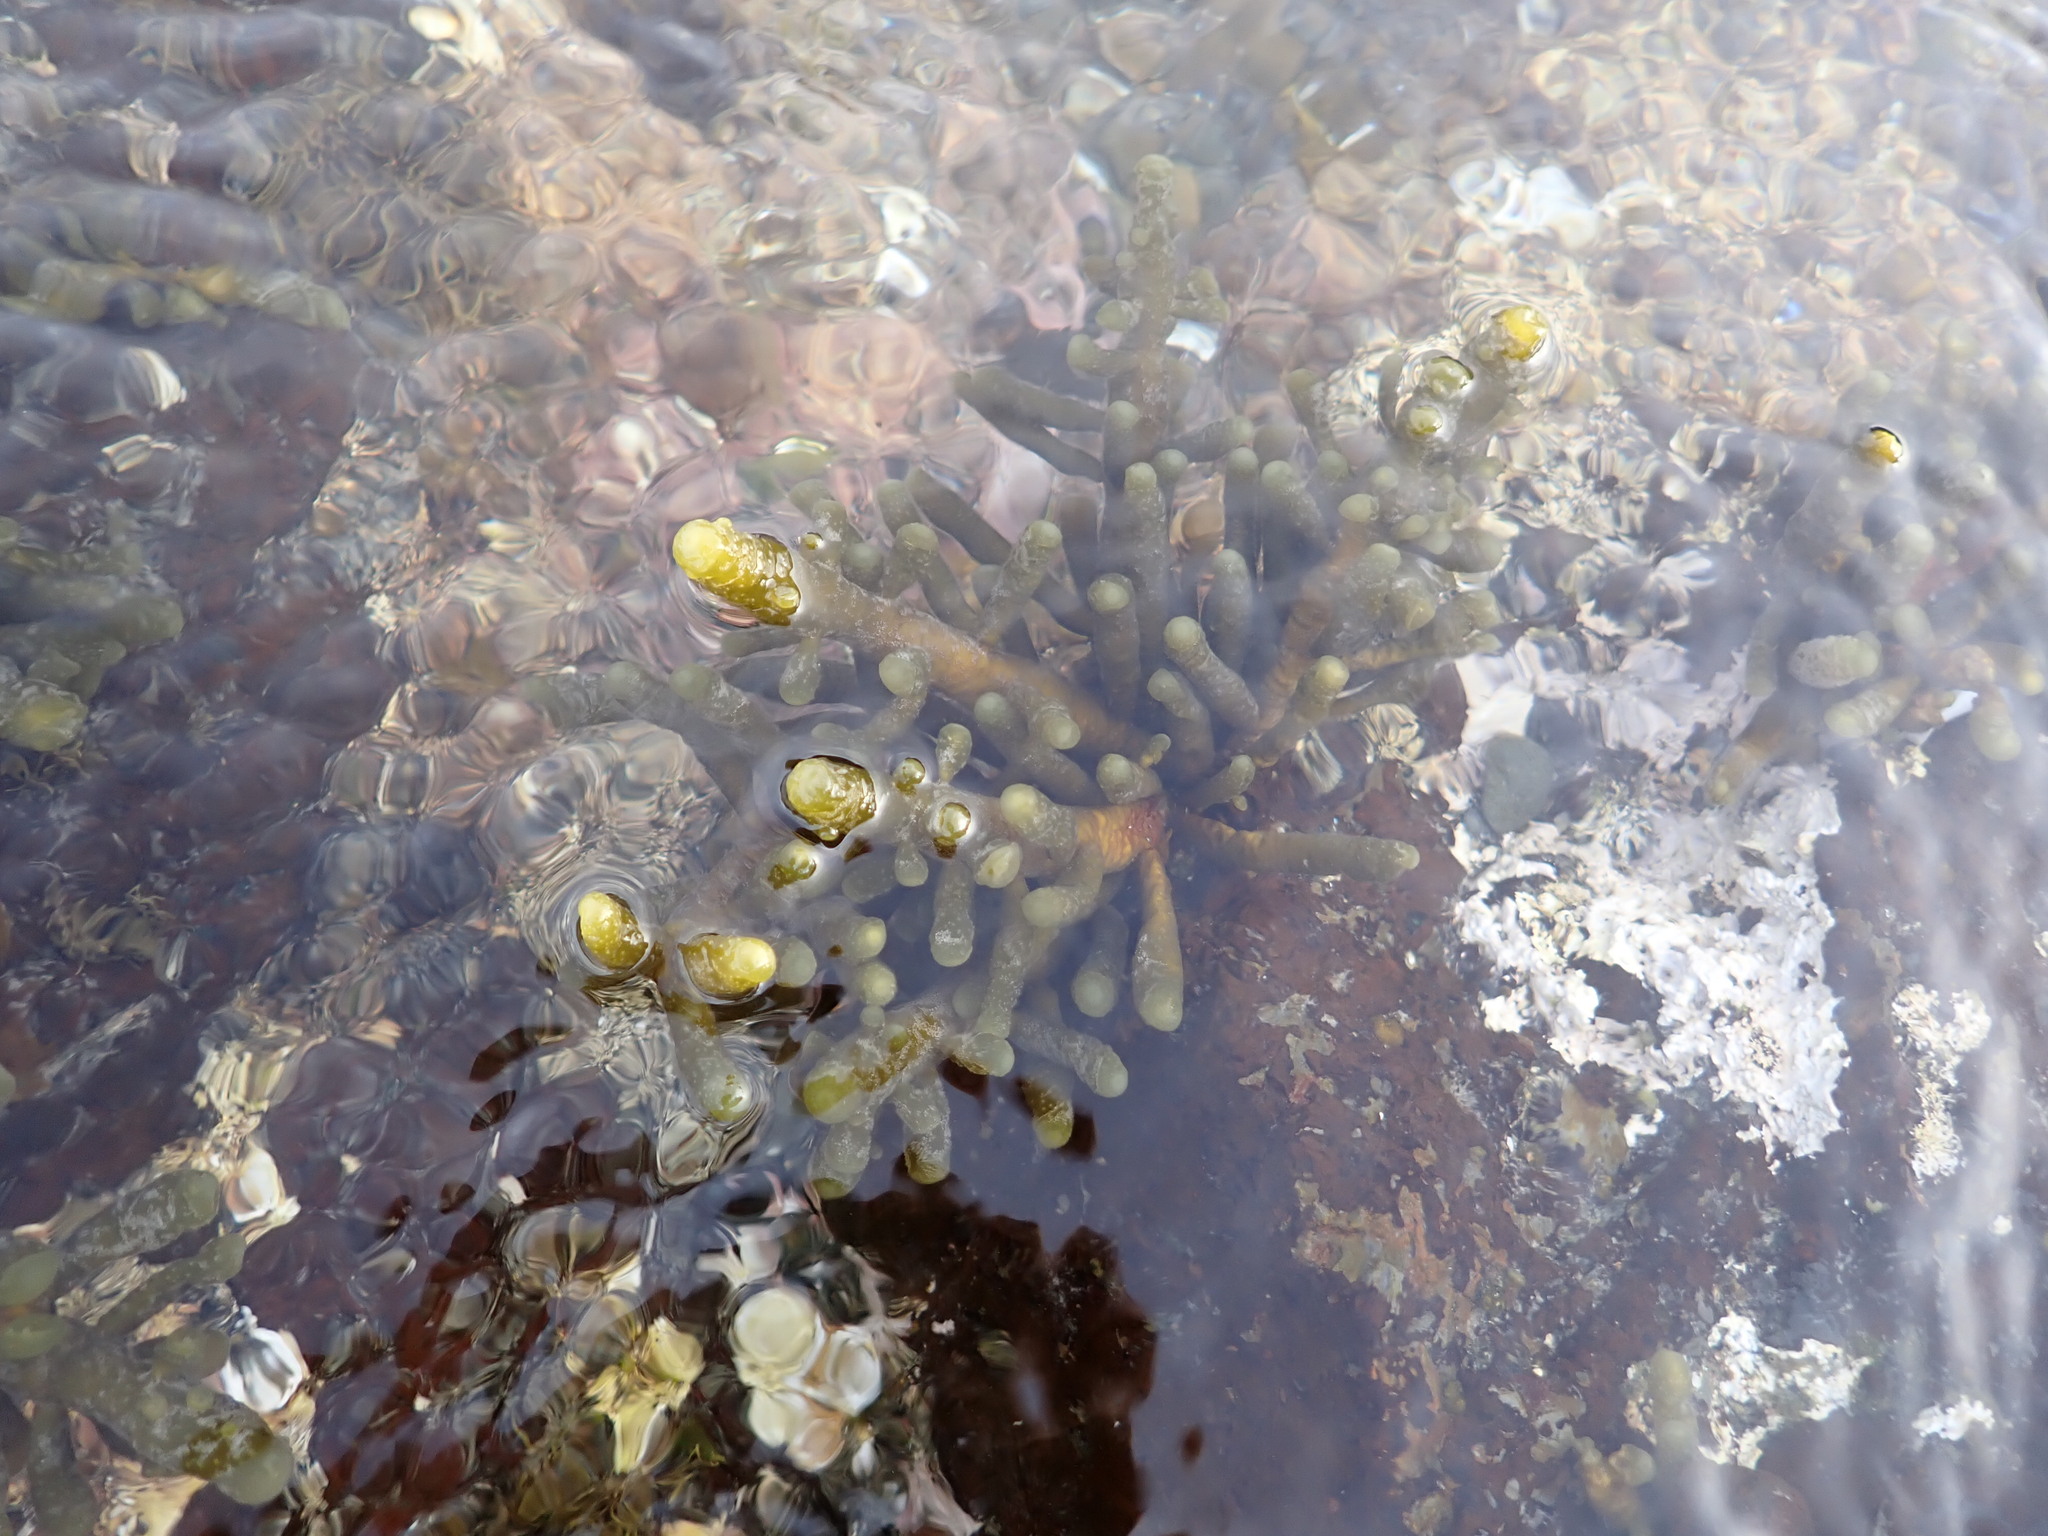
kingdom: Chromista
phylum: Ochrophyta
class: Phaeophyceae
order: Scytothamnales
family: Splachnidiaceae
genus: Splachnidium
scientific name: Splachnidium rugosum
